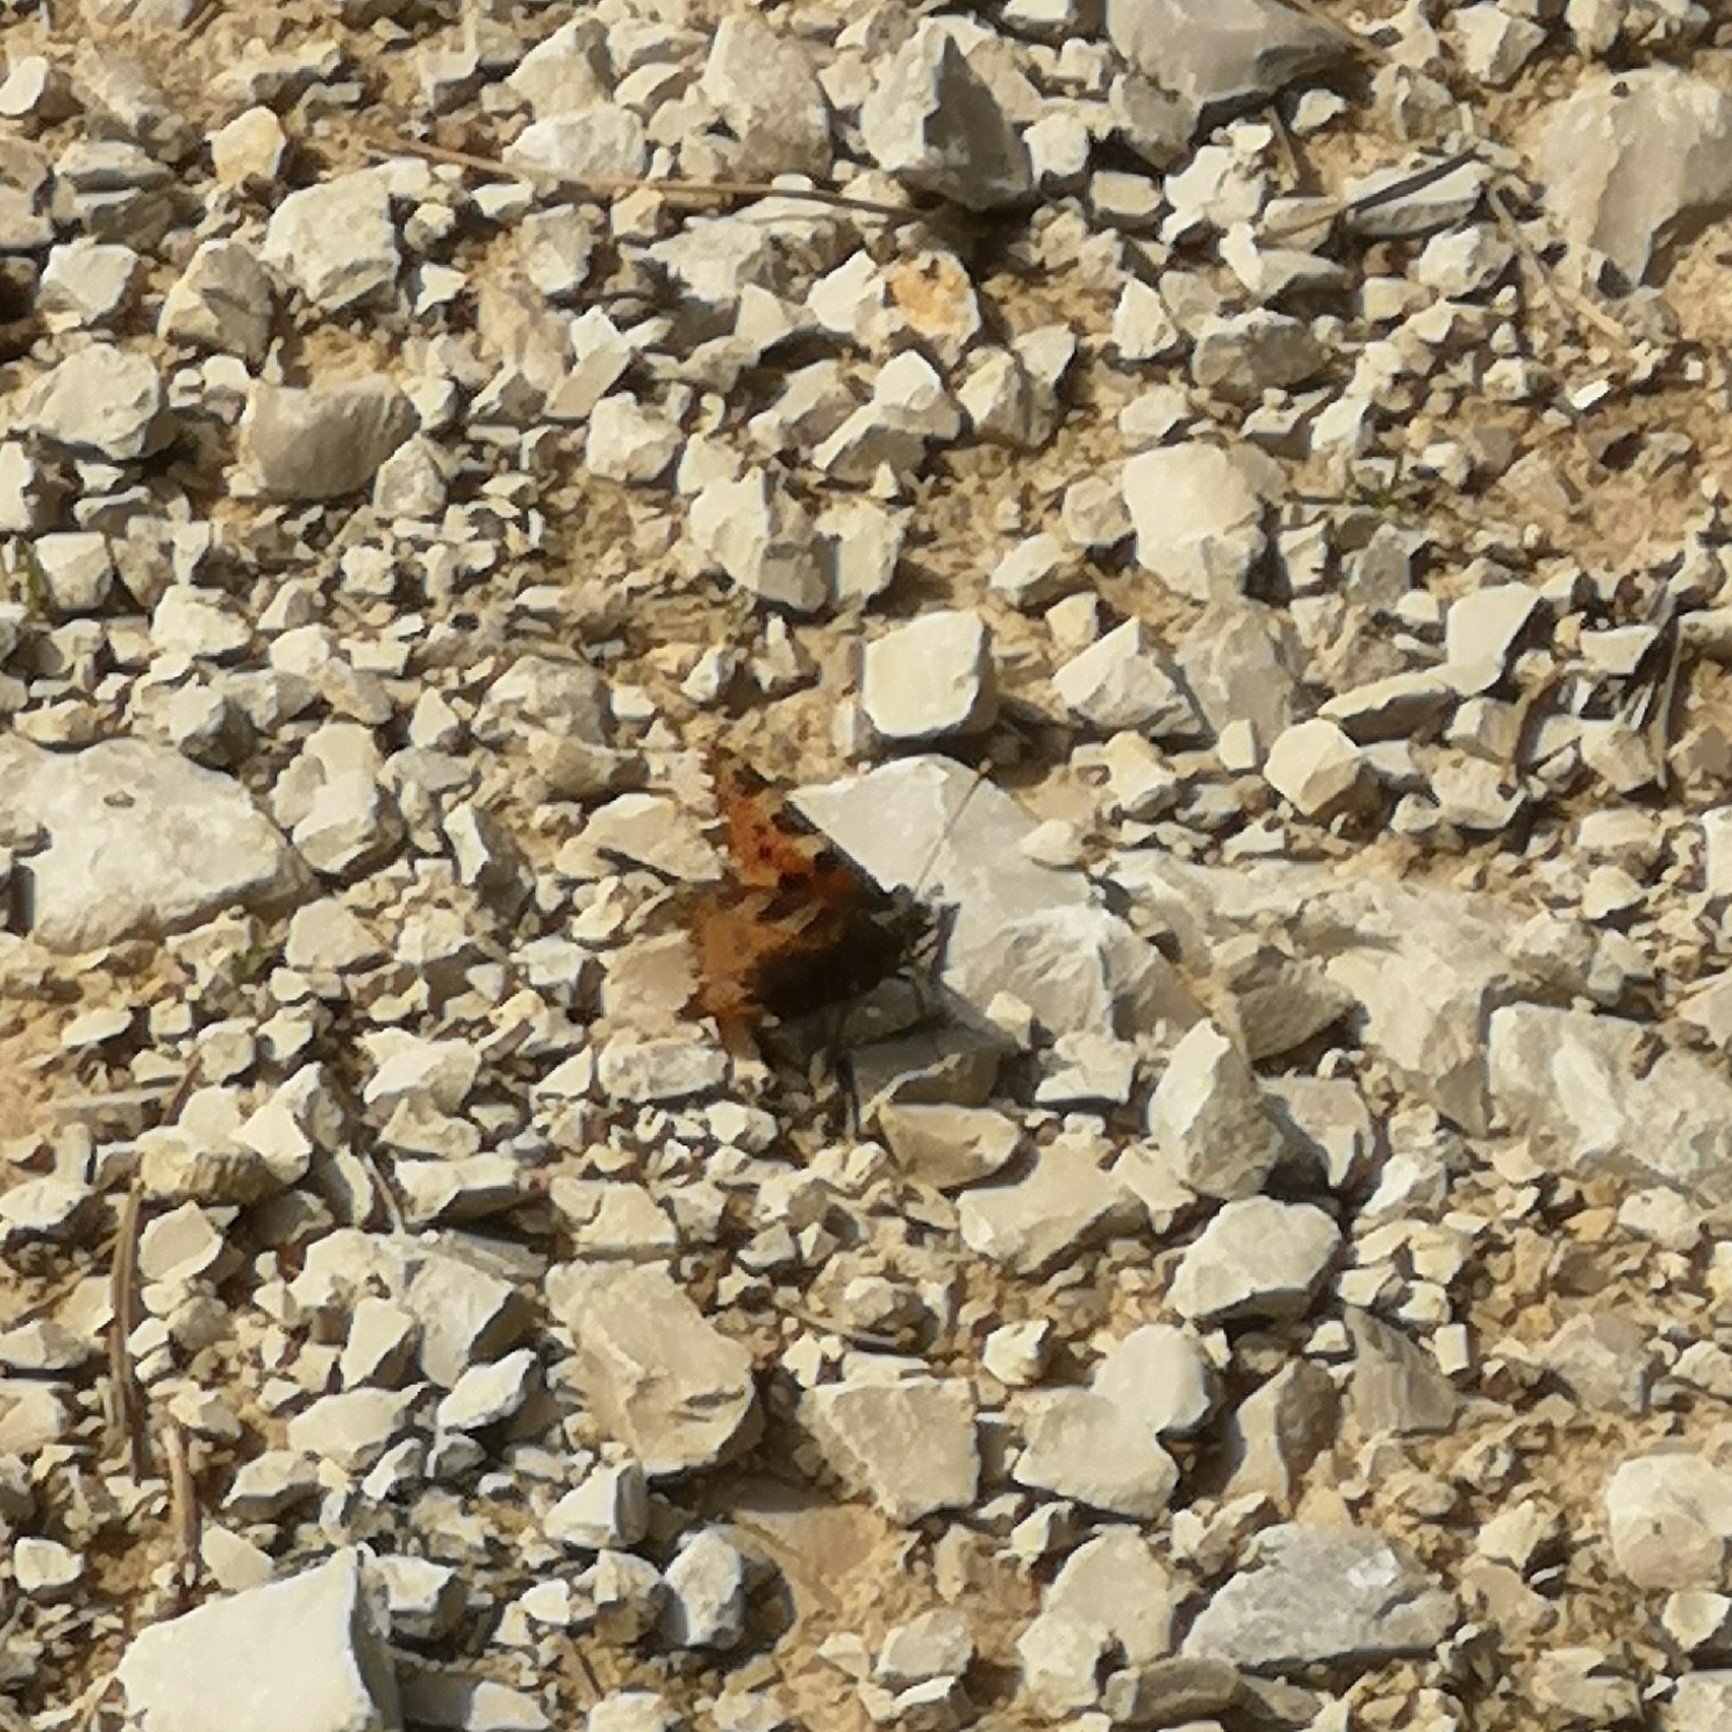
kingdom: Animalia
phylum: Arthropoda
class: Insecta
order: Lepidoptera
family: Nymphalidae
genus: Aglais
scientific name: Aglais urticae
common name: Small tortoiseshell
